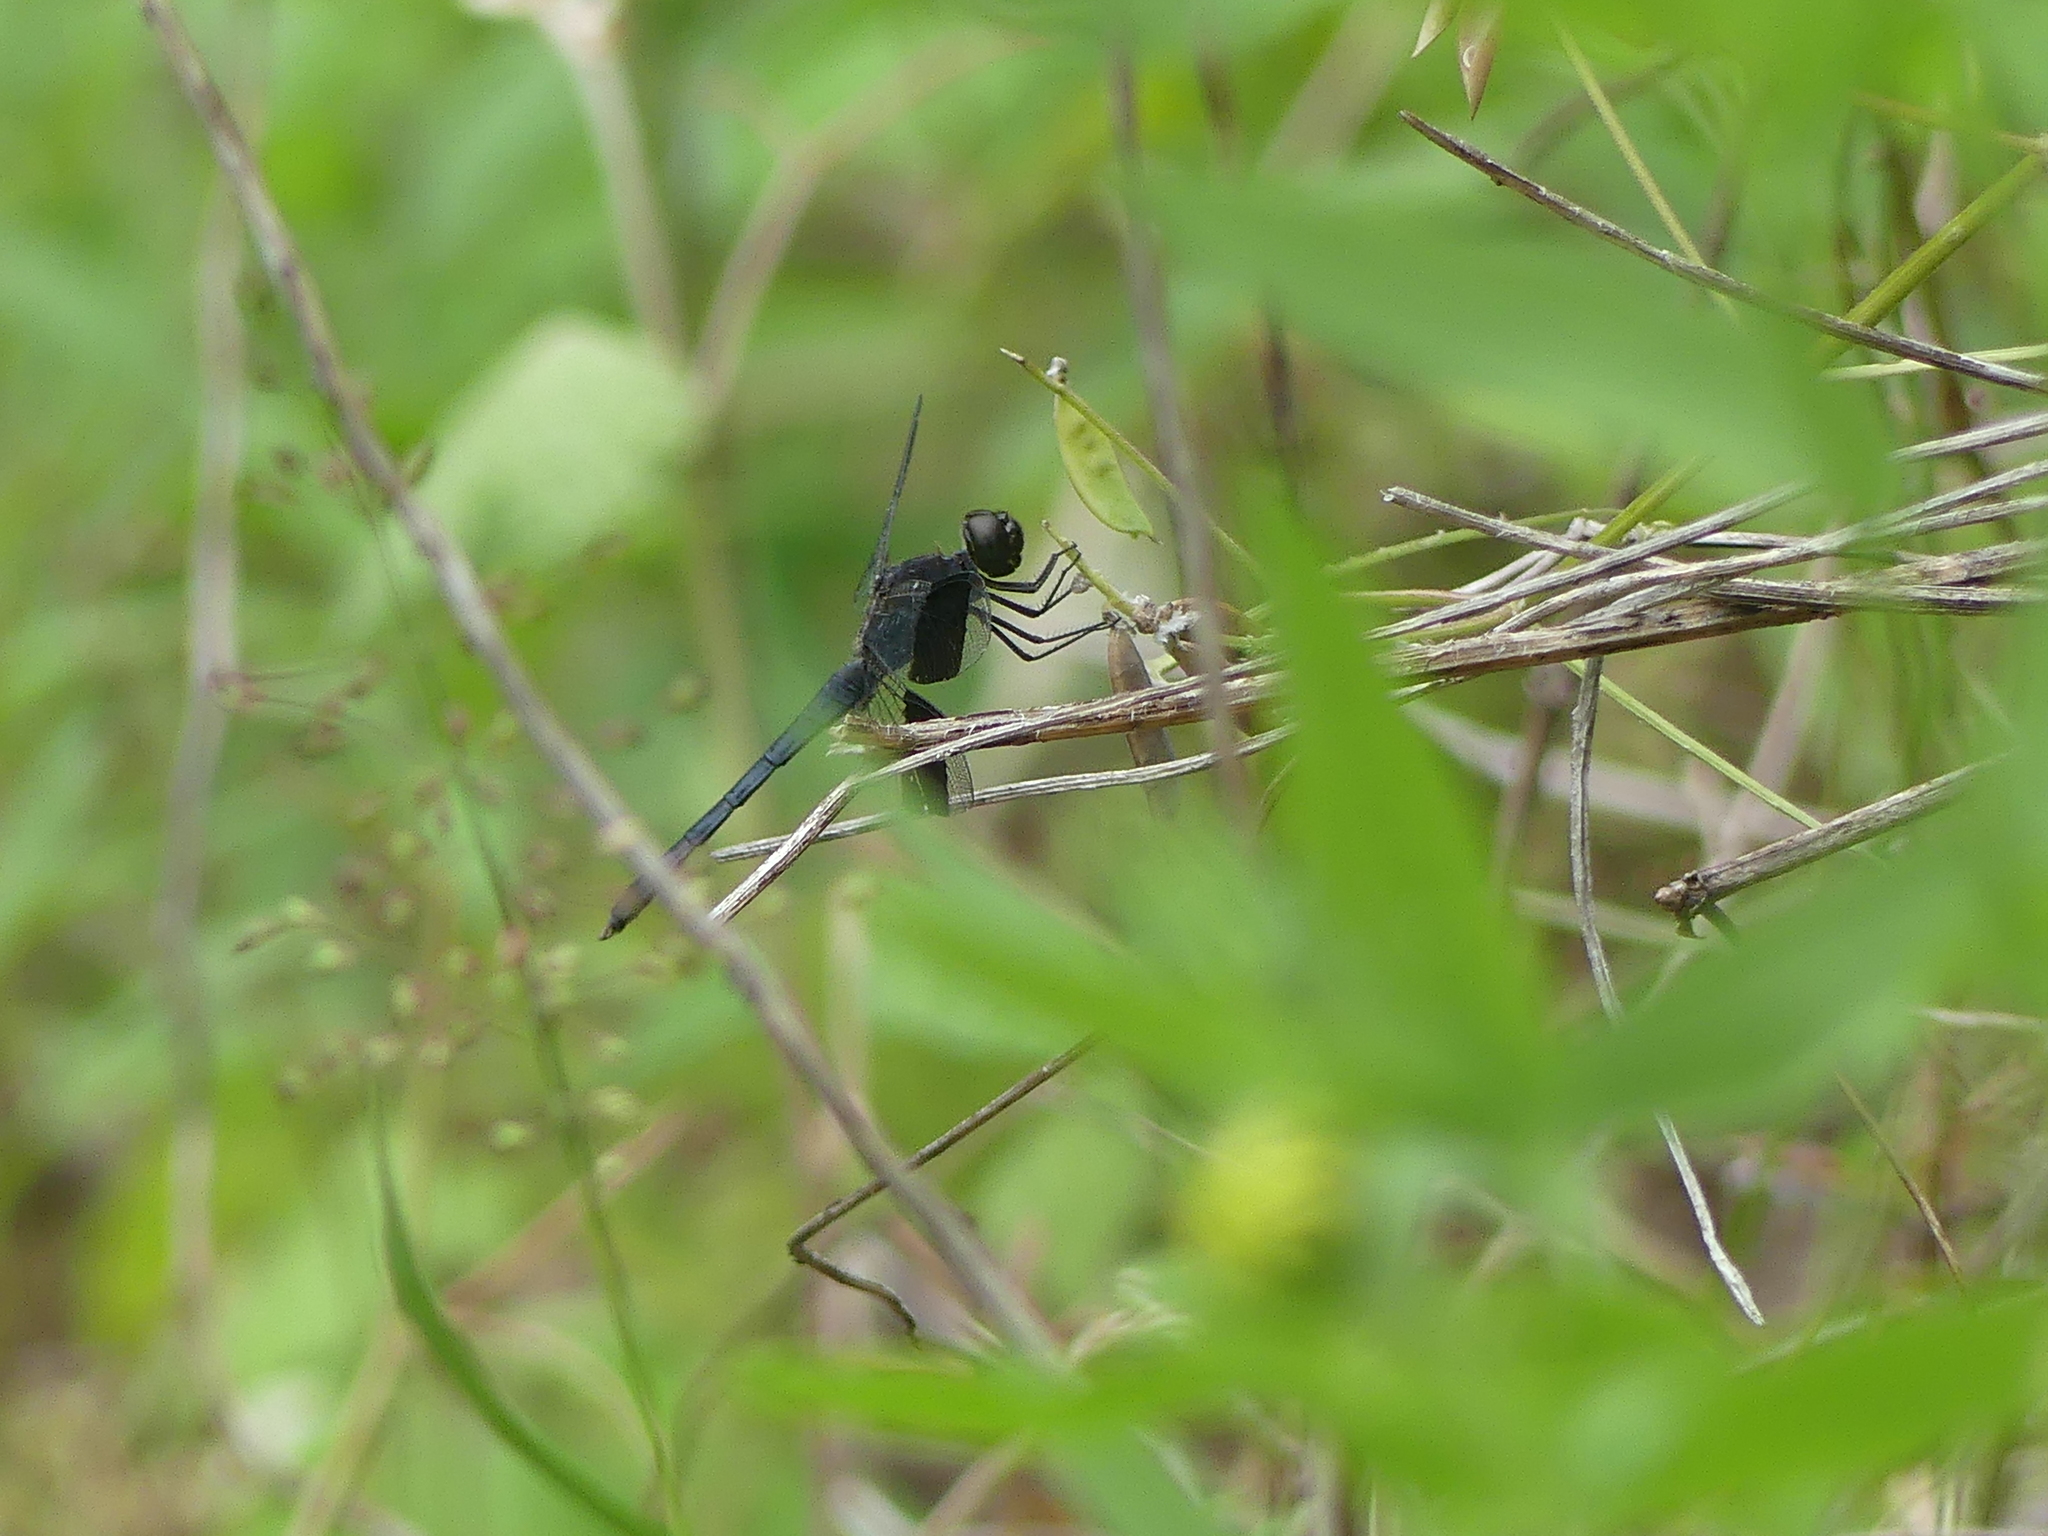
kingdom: Animalia
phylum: Arthropoda
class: Insecta
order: Odonata
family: Libellulidae
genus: Erythrodiplax
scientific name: Erythrodiplax umbrata
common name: Band-winged dragonlet
